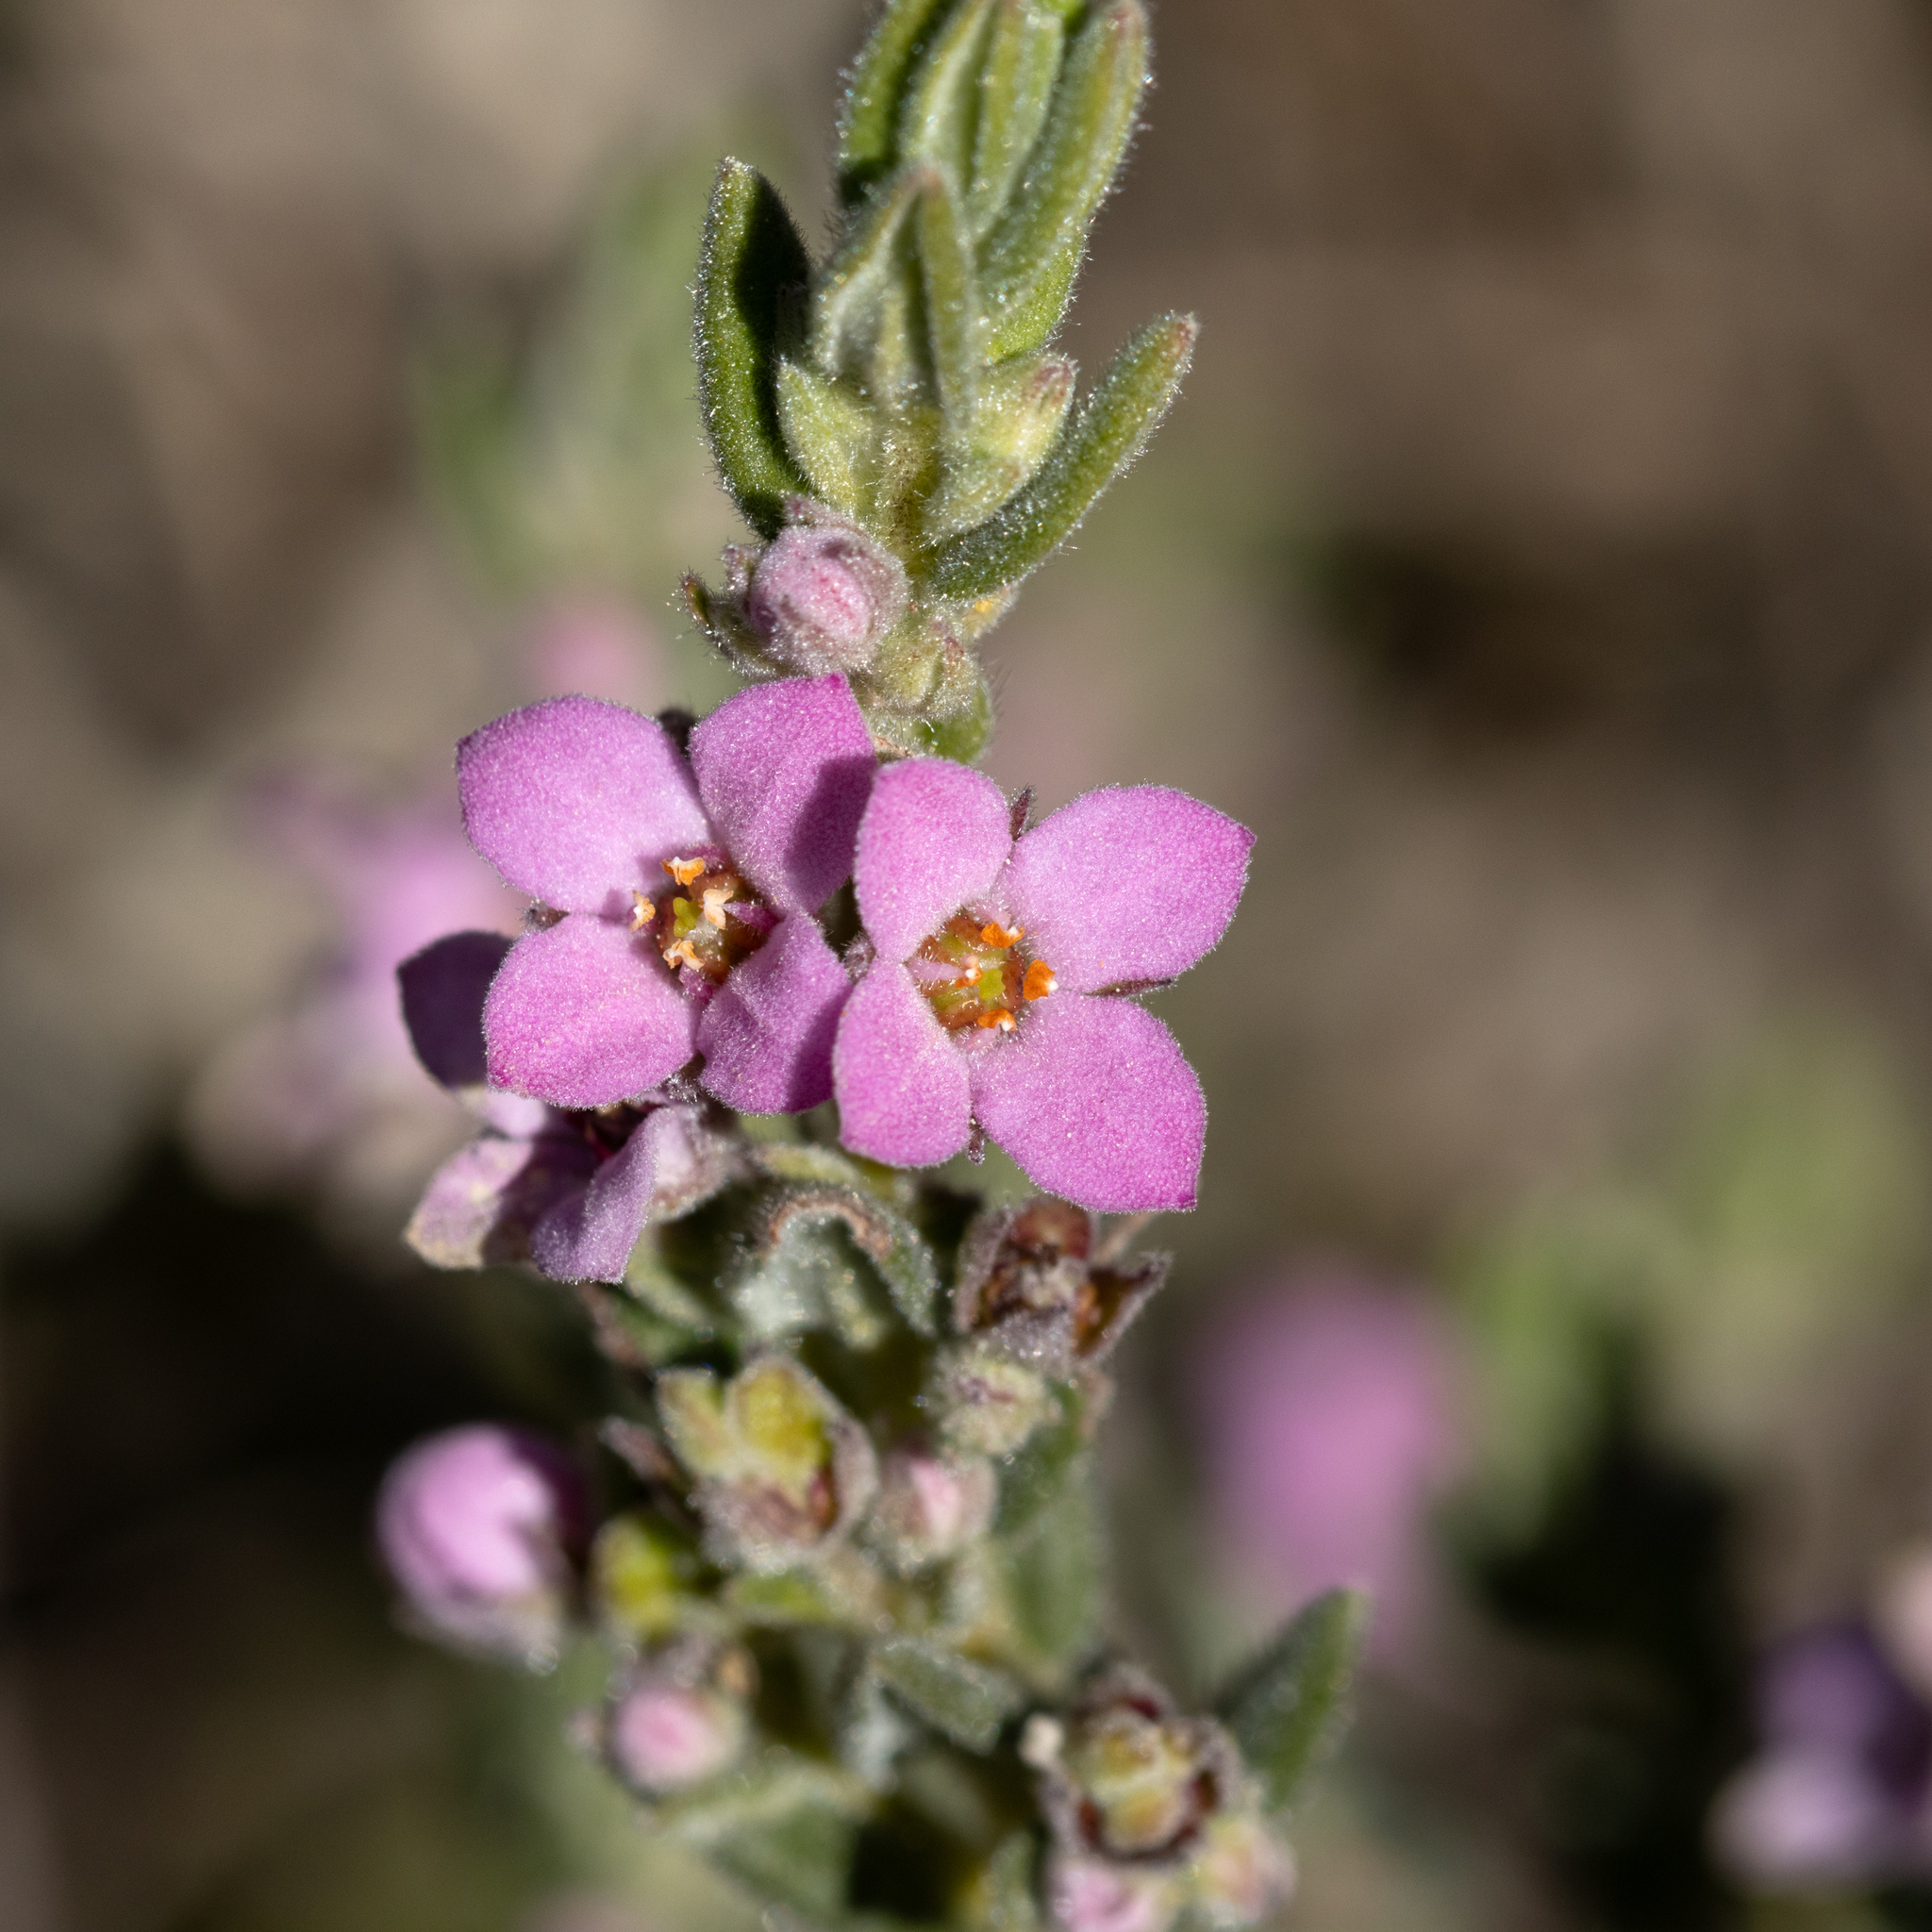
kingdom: Plantae
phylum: Tracheophyta
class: Magnoliopsida
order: Sapindales
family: Rutaceae
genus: Zieria
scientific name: Zieria veronicea
